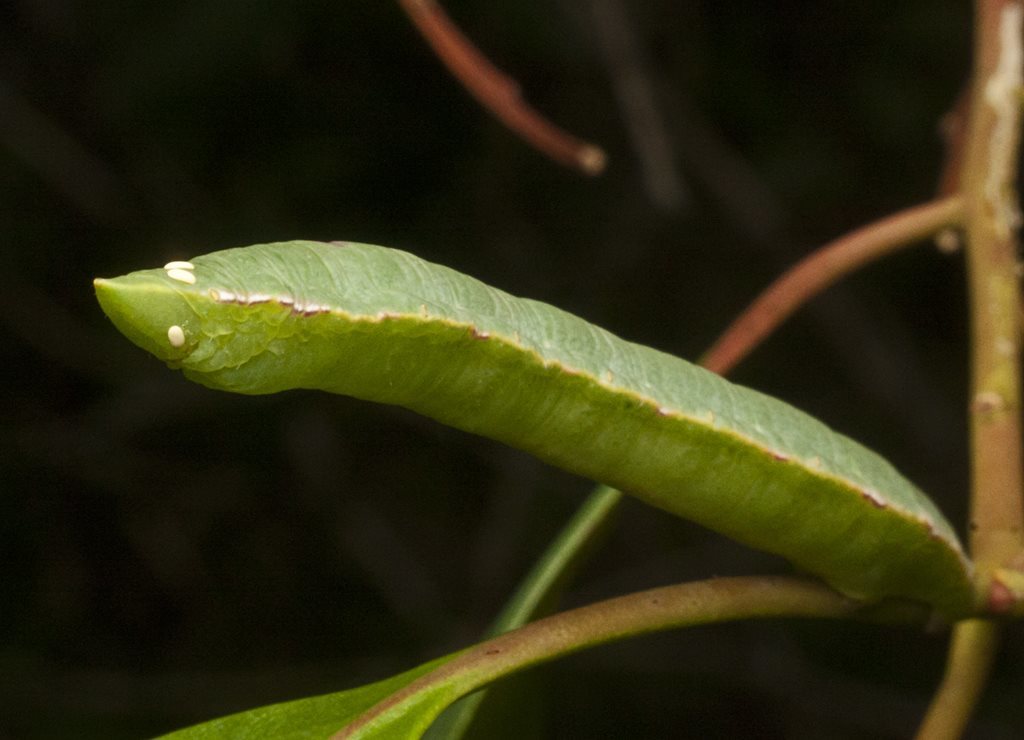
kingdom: Animalia
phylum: Arthropoda
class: Insecta
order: Lepidoptera
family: Geometridae
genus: Hypodoxa
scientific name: Hypodoxa emiliaria
